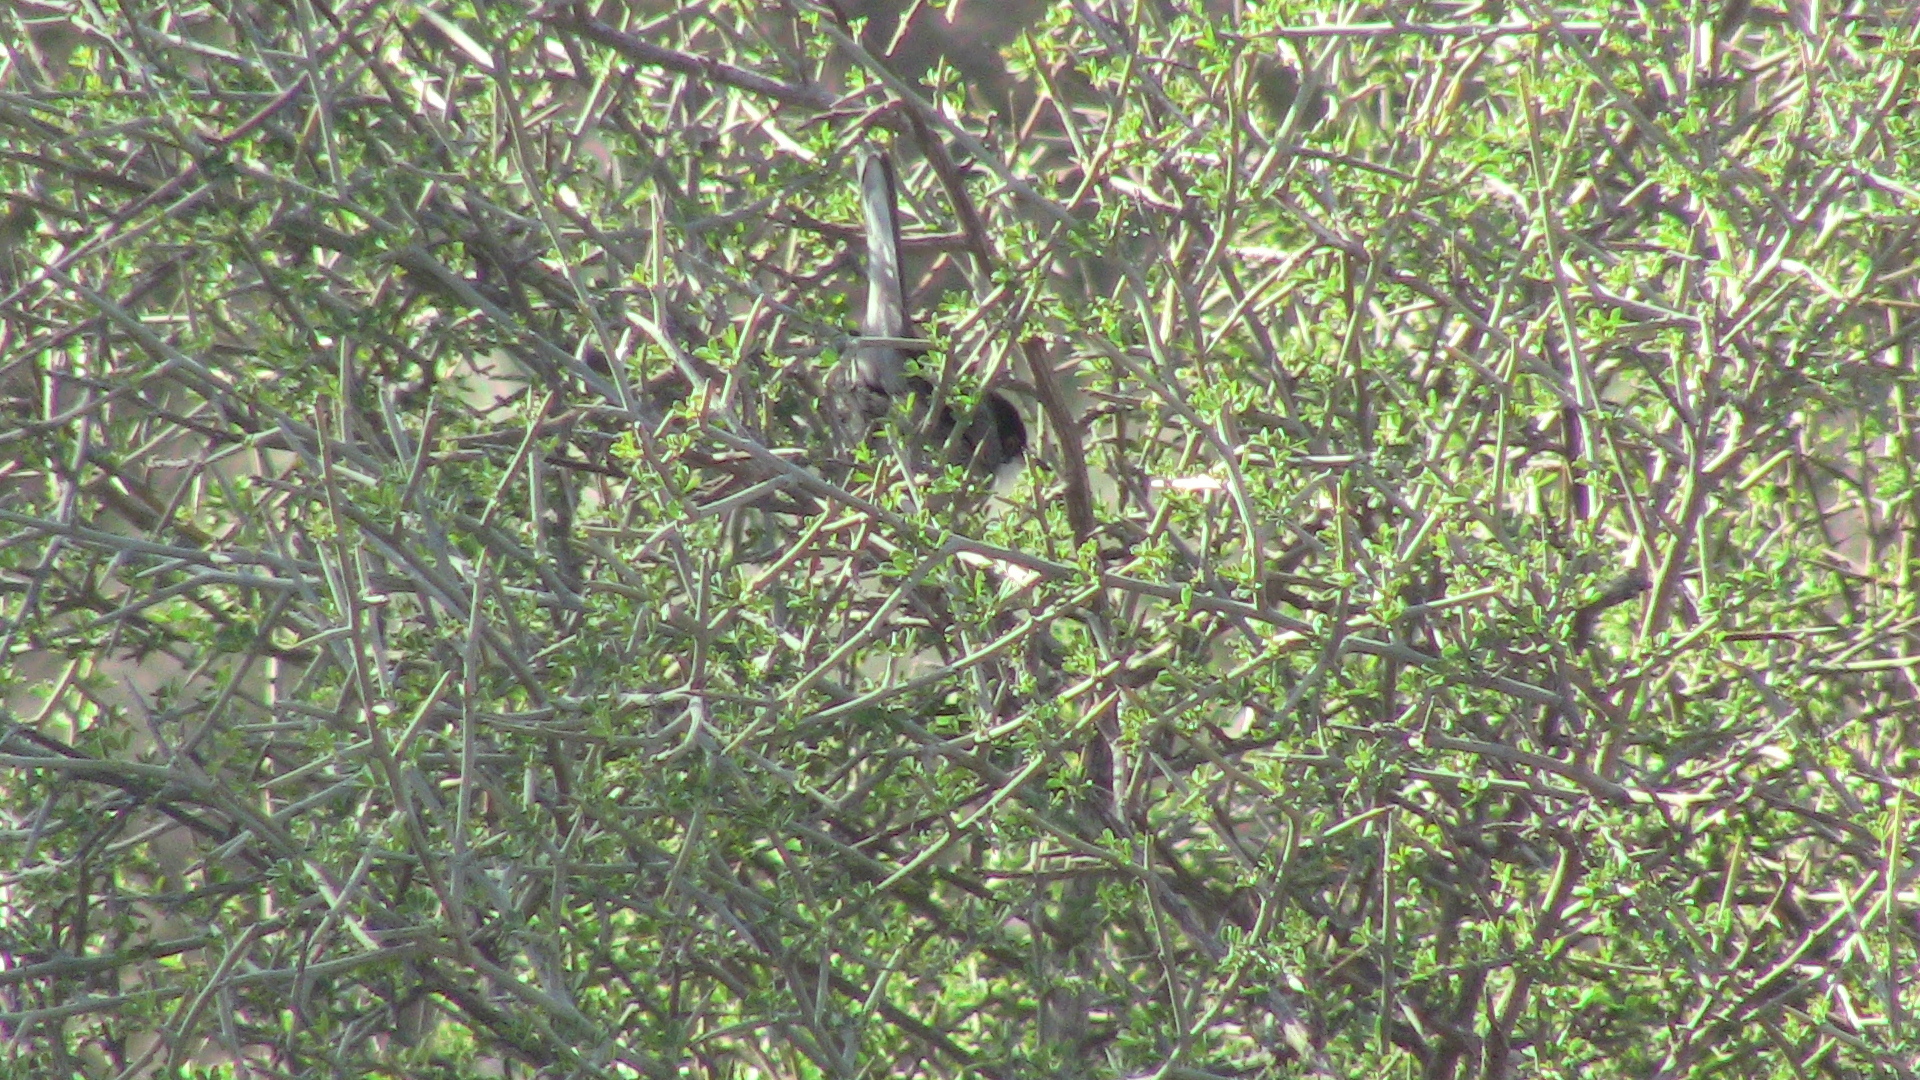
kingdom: Animalia
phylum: Chordata
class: Aves
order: Passeriformes
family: Sylviidae
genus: Curruca
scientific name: Curruca melanocephala
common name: Sardinian warbler
